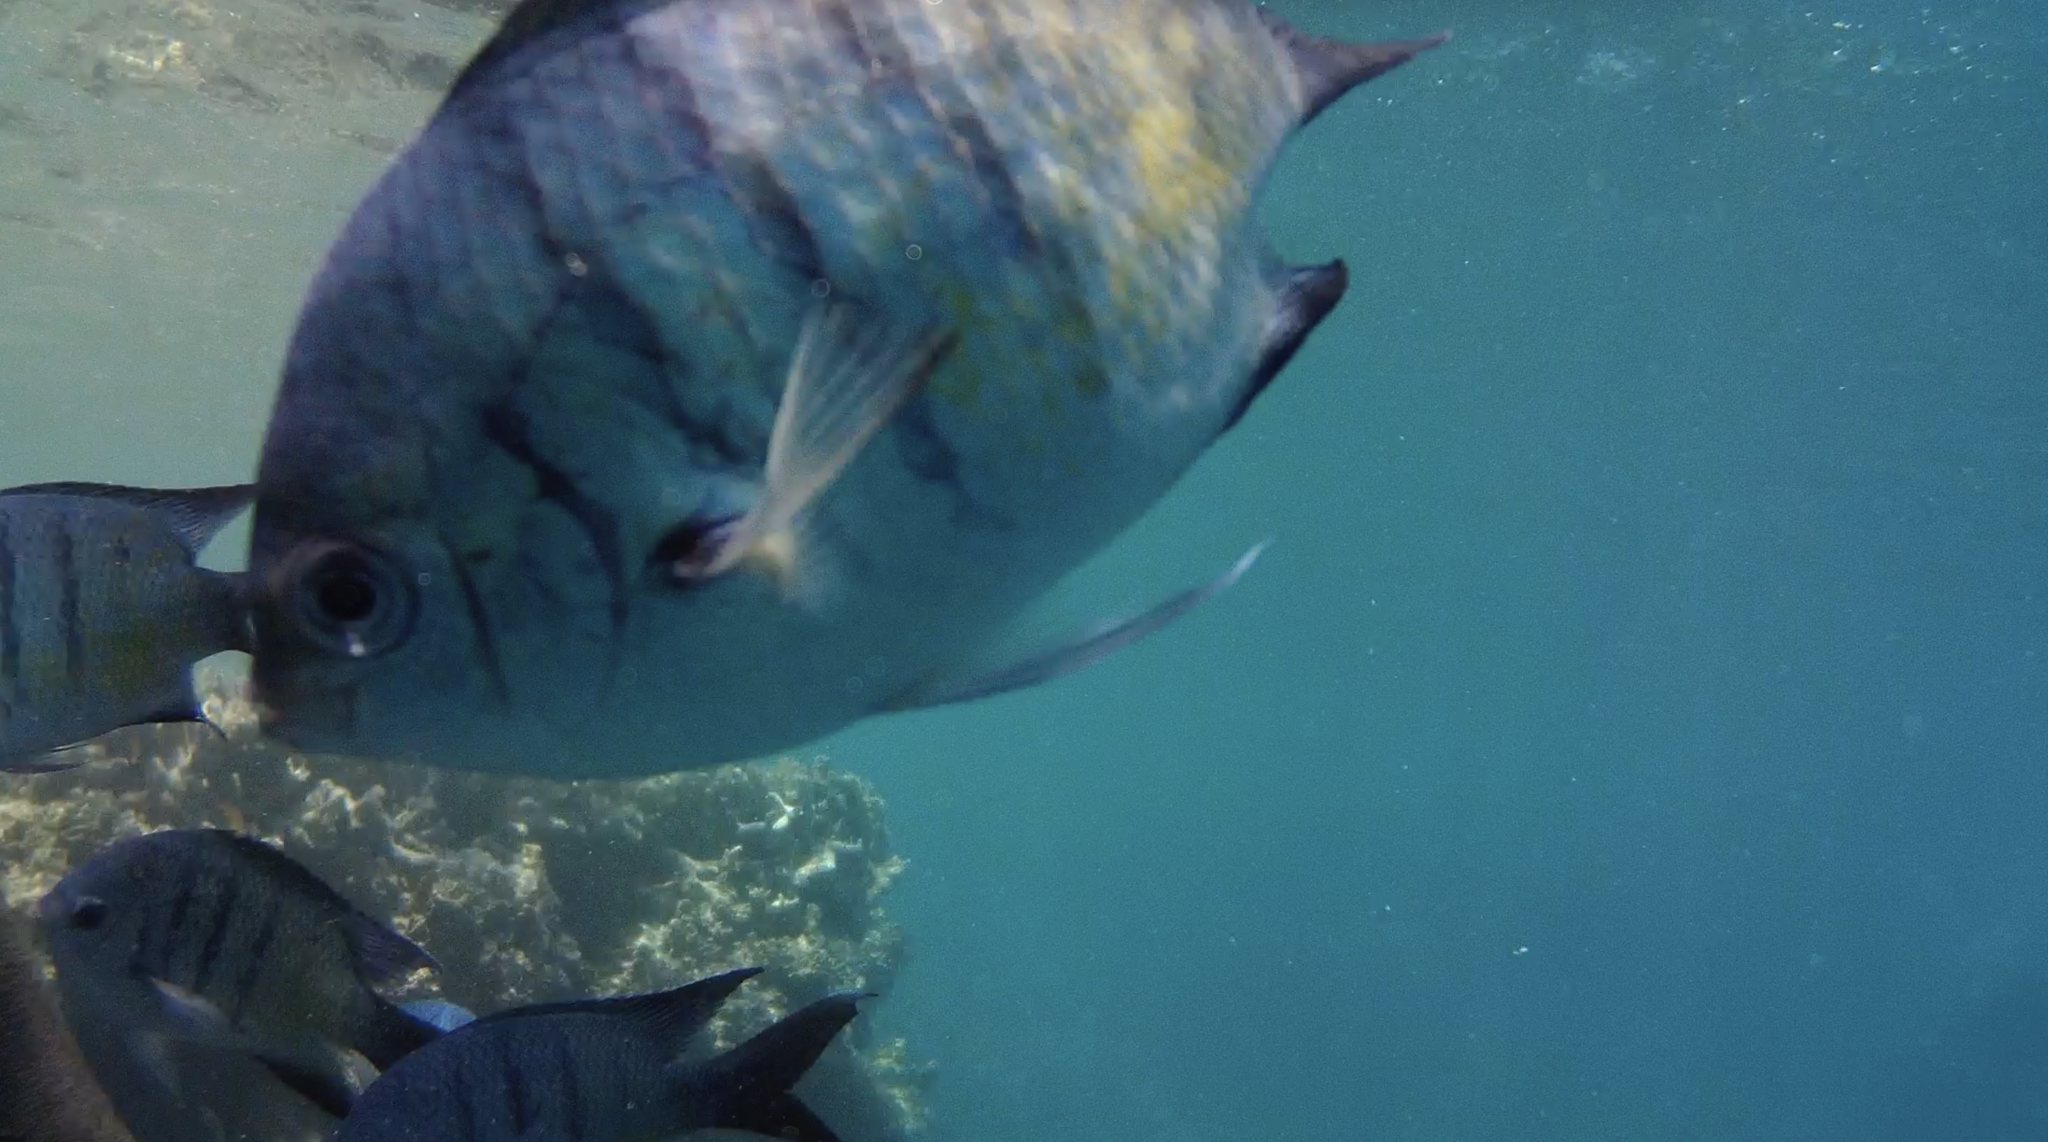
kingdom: Animalia
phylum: Chordata
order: Perciformes
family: Pomacentridae
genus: Abudefduf
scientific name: Abudefduf whitleyi
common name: Whitley's seargent
